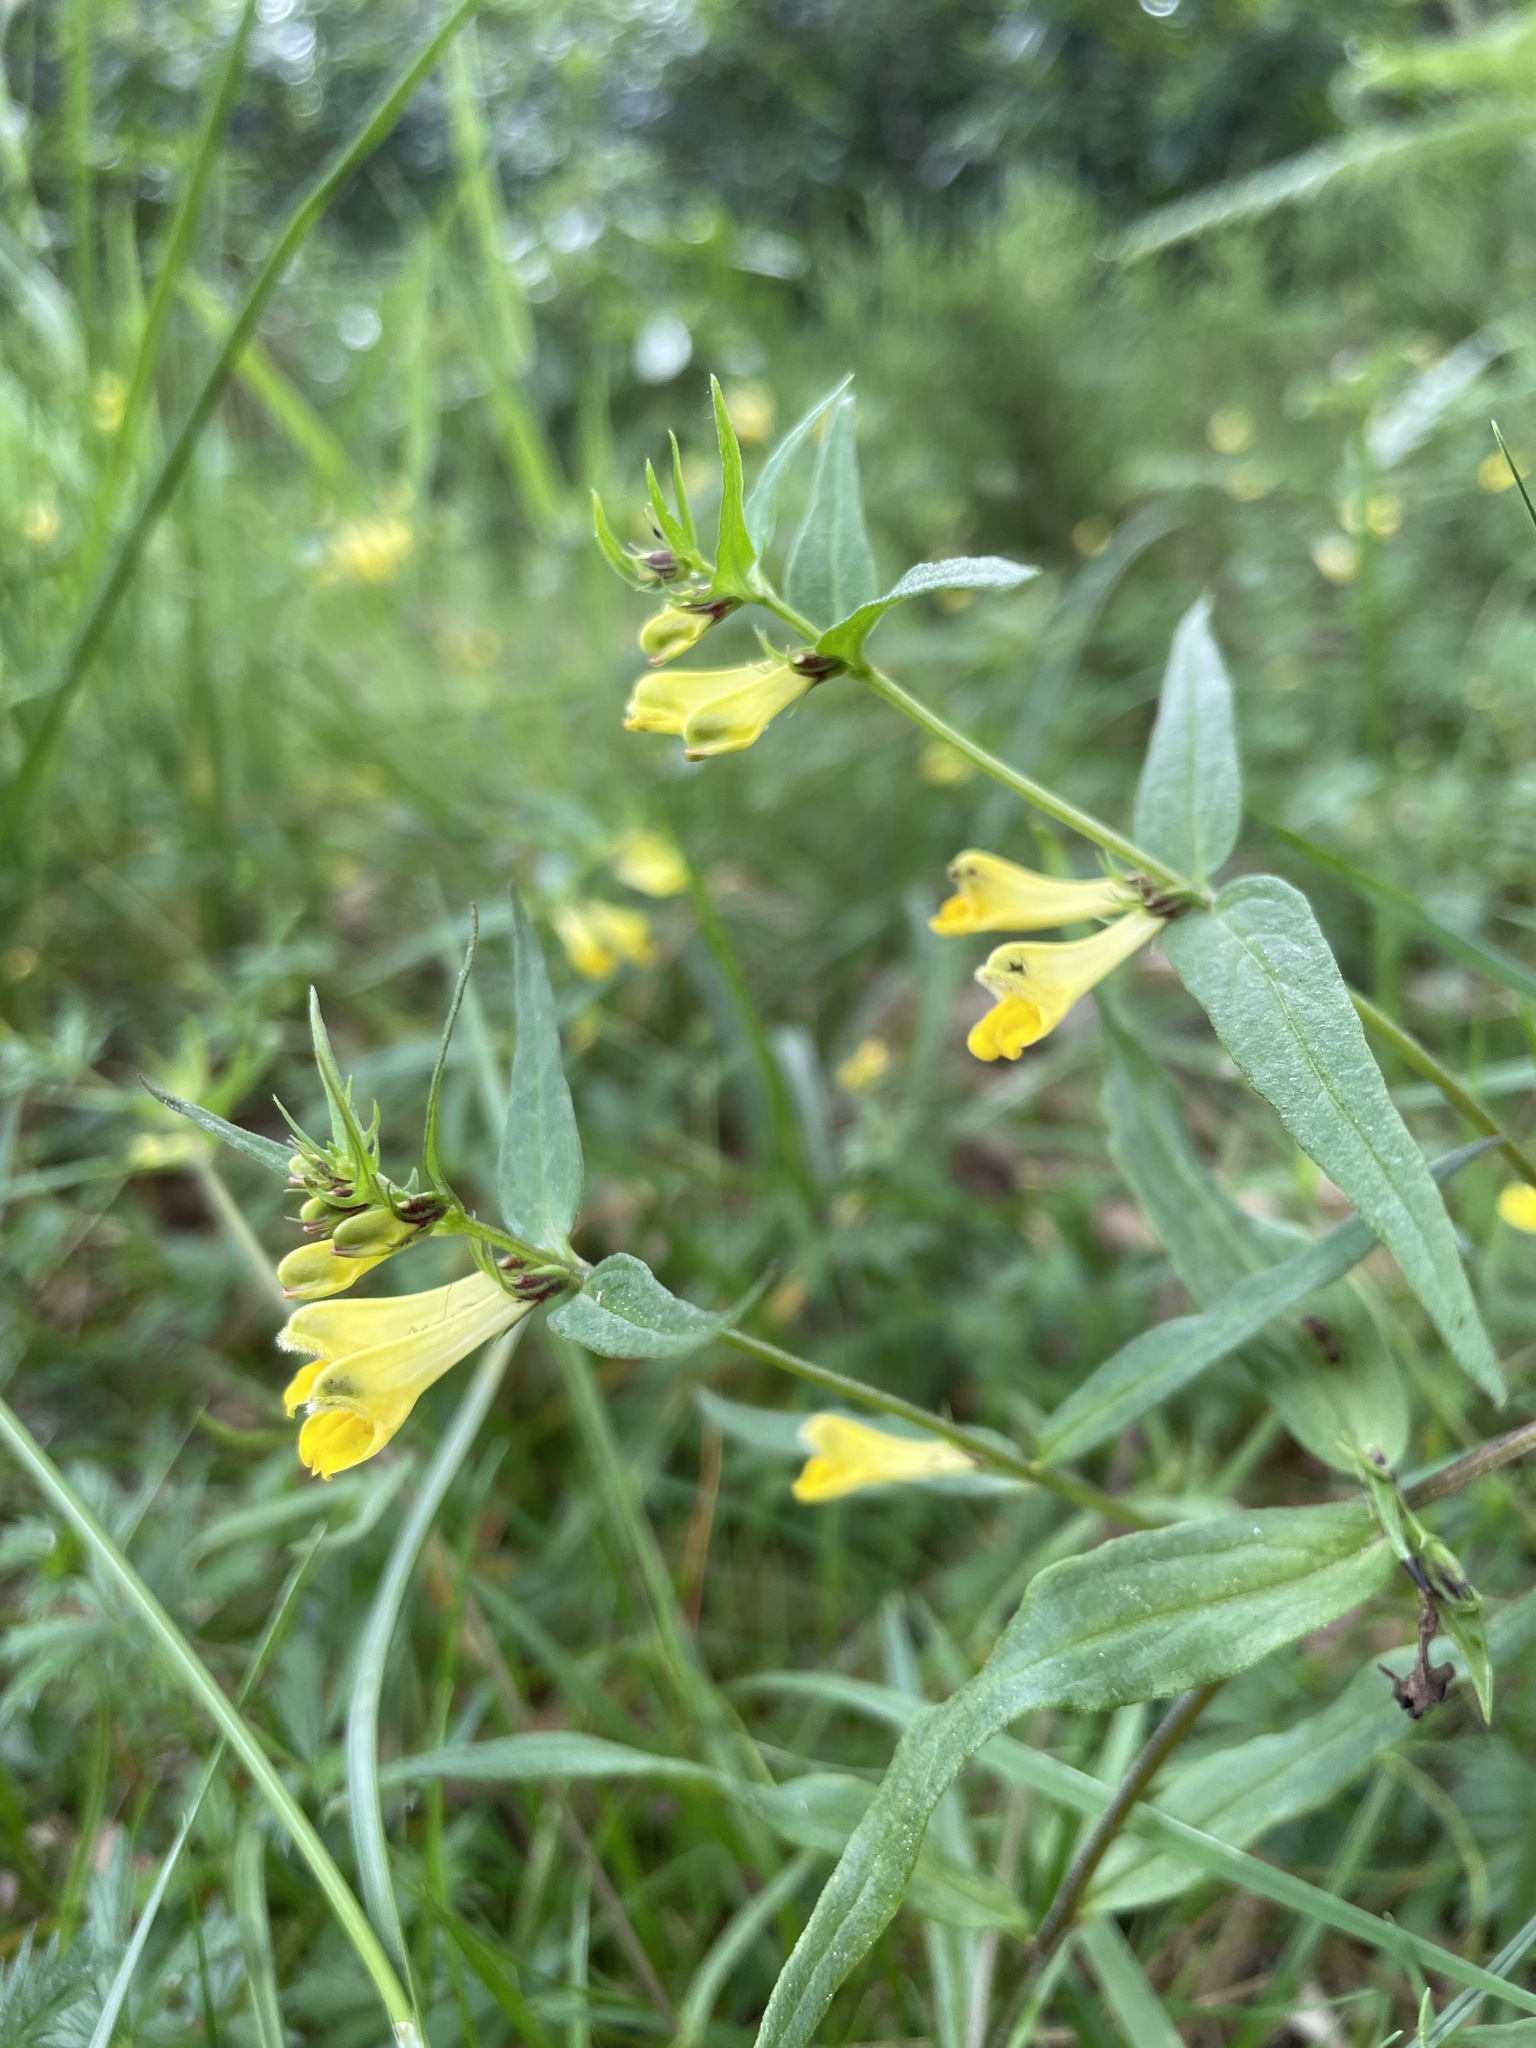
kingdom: Plantae
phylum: Tracheophyta
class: Magnoliopsida
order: Lamiales
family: Orobanchaceae
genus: Melampyrum
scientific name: Melampyrum pratense
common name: Common cow-wheat
